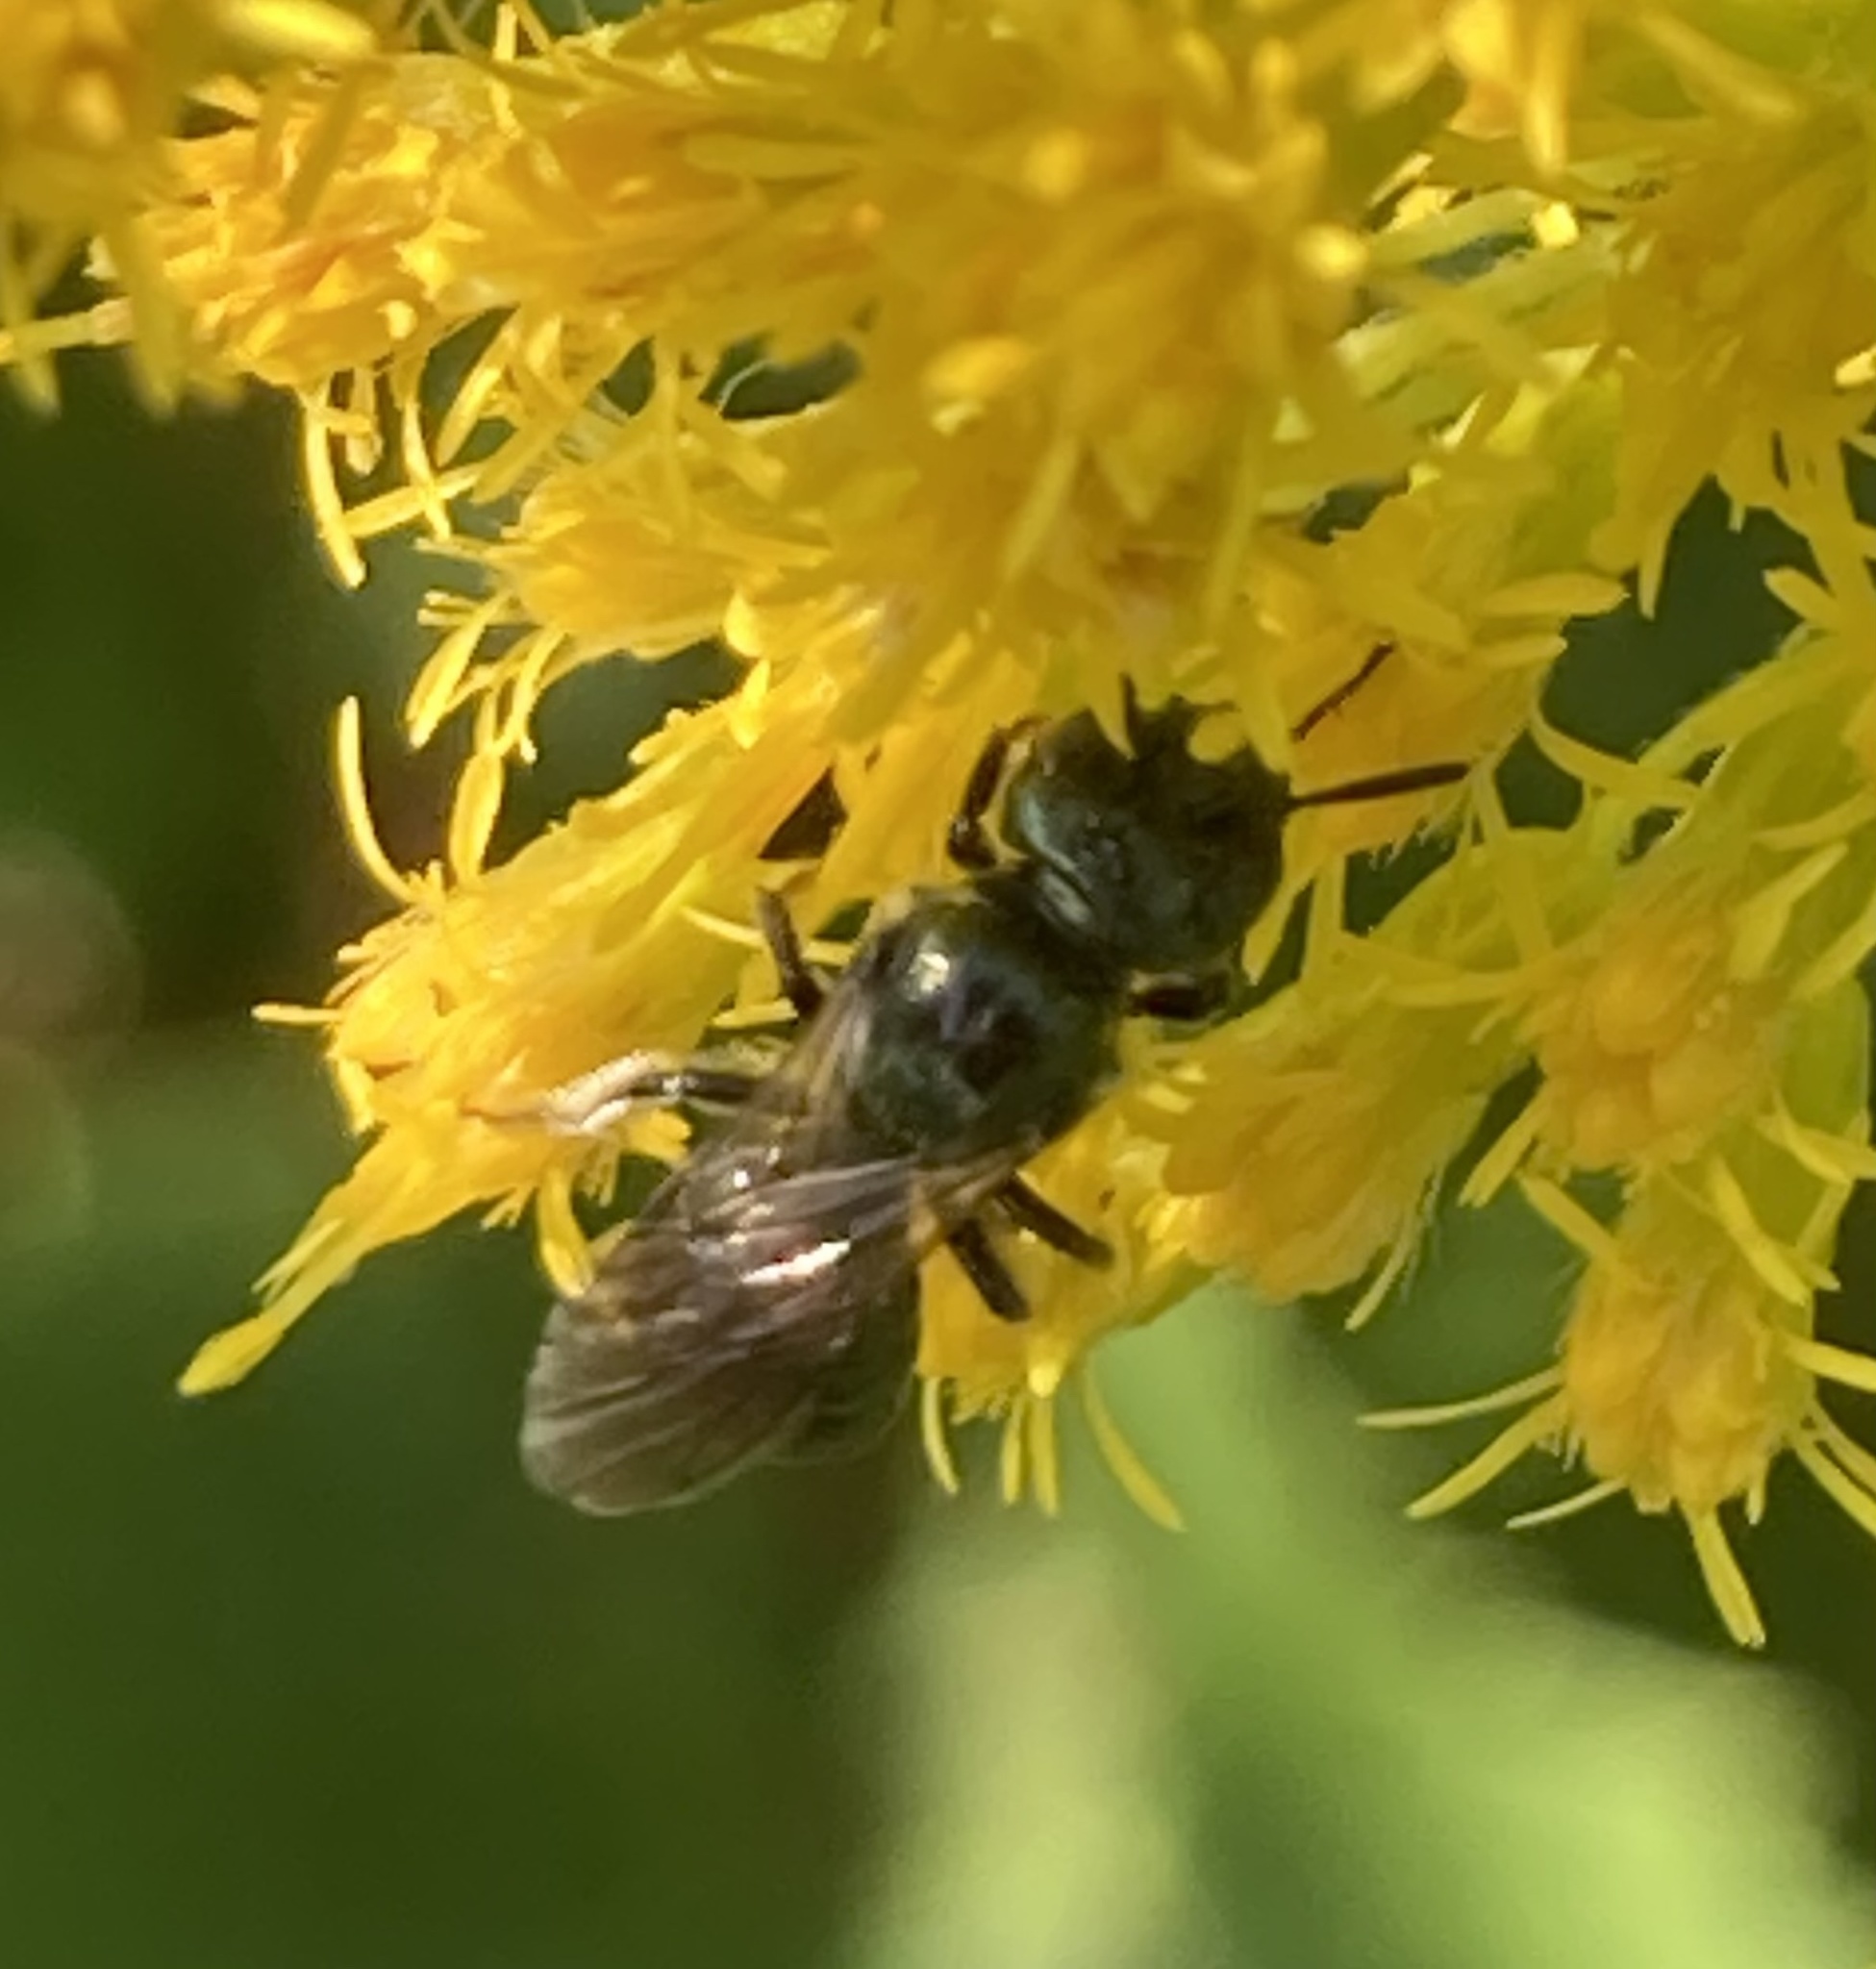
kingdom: Animalia
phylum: Arthropoda
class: Insecta
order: Hymenoptera
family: Apidae
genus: Zadontomerus
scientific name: Zadontomerus
